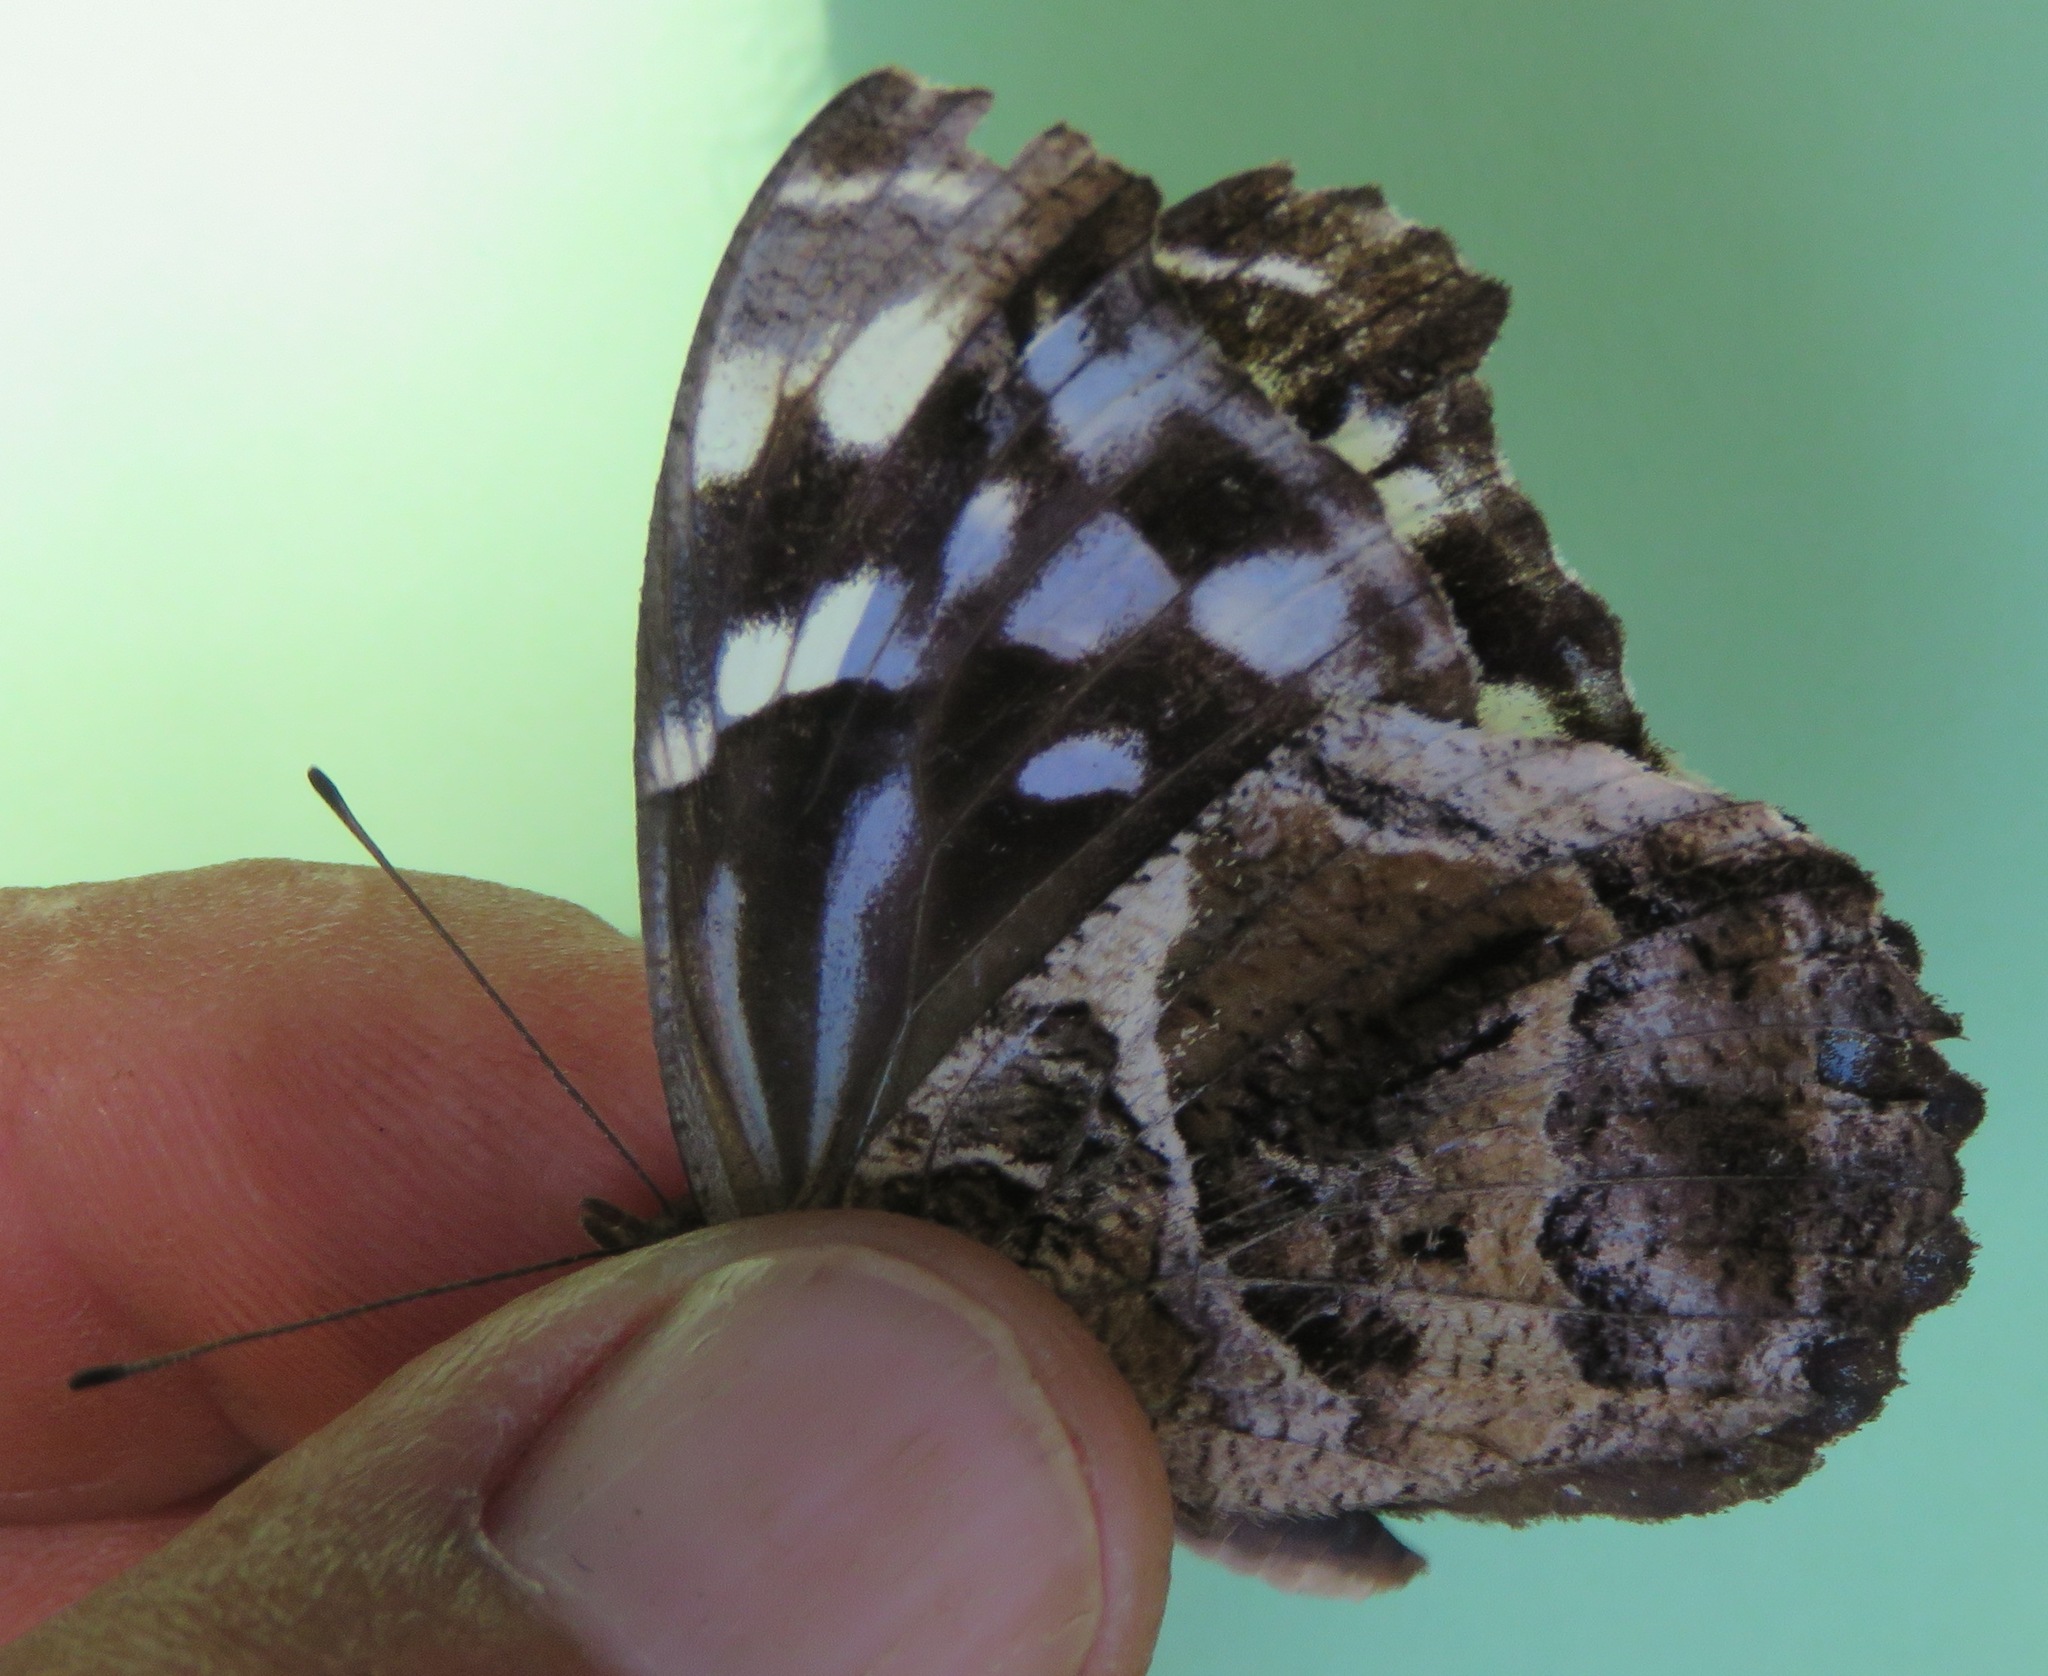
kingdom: Animalia
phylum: Arthropoda
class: Insecta
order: Lepidoptera
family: Nymphalidae
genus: Myscelia
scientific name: Myscelia ethusa
